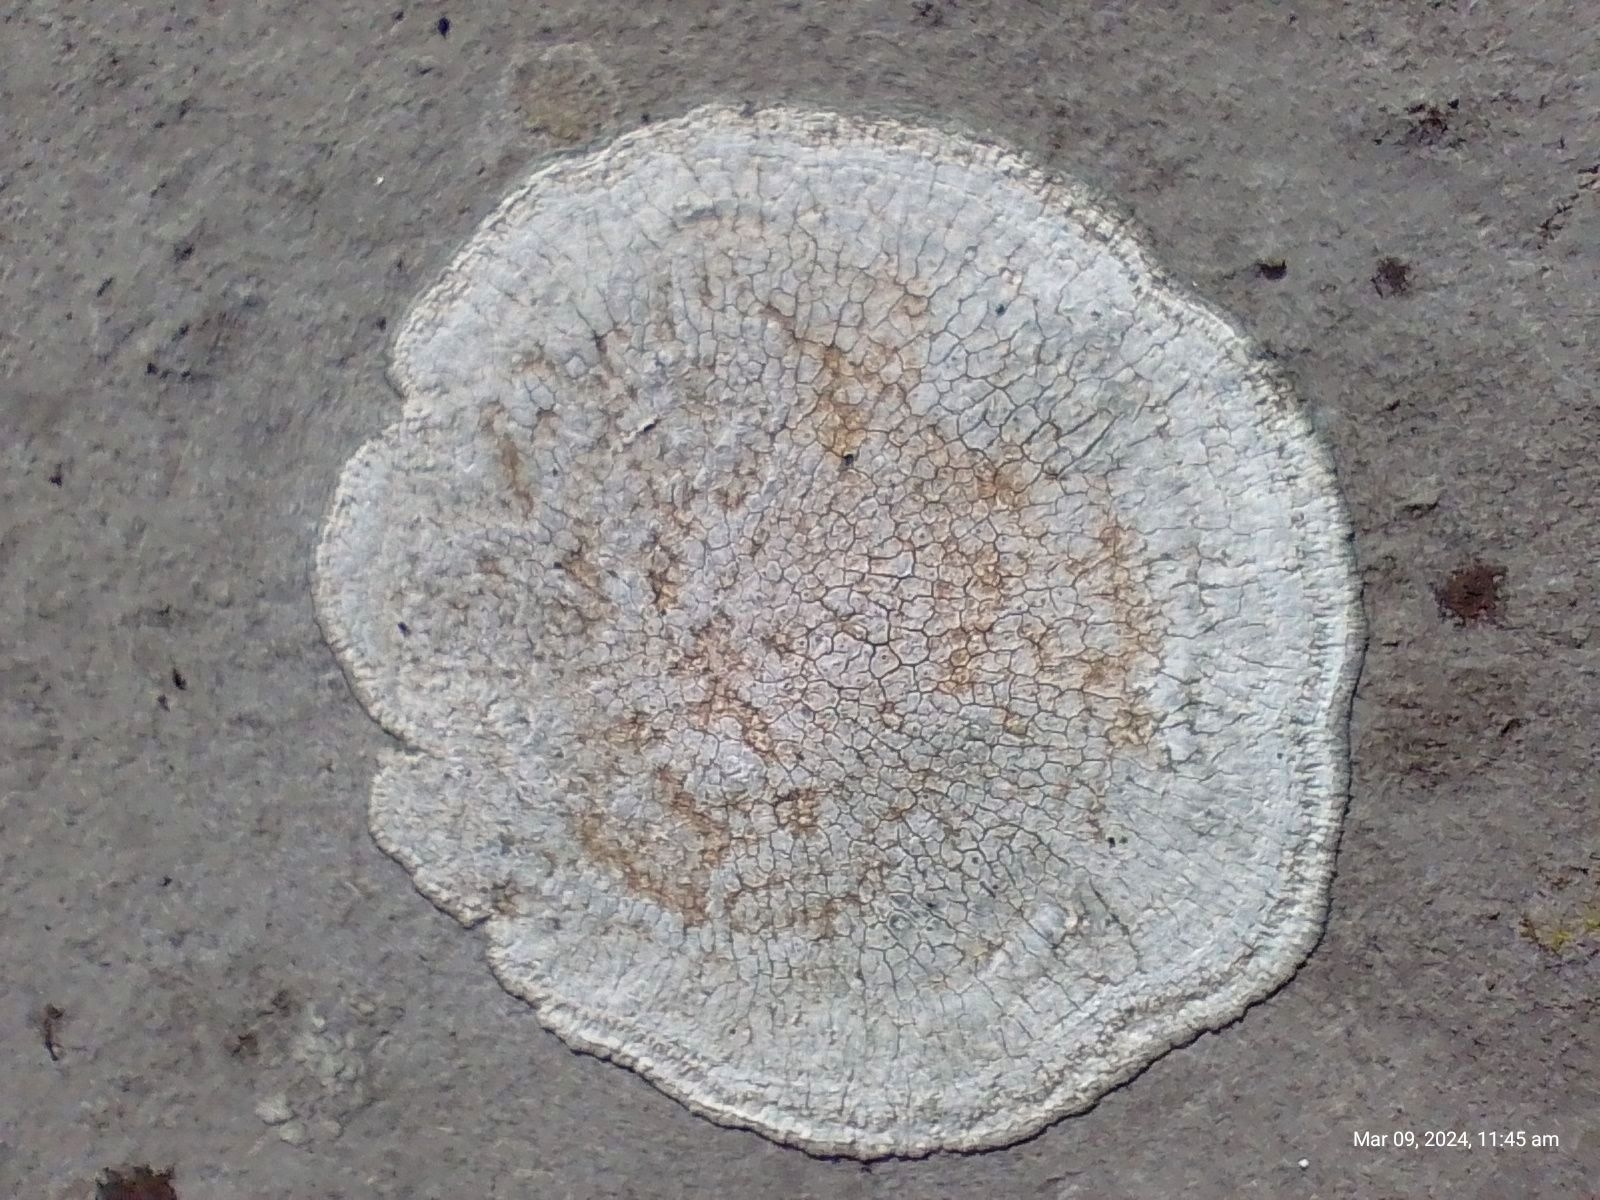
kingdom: Fungi
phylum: Ascomycota
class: Lecanoromycetes
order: Pertusariales
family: Megasporaceae
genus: Circinaria
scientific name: Circinaria calcarea
